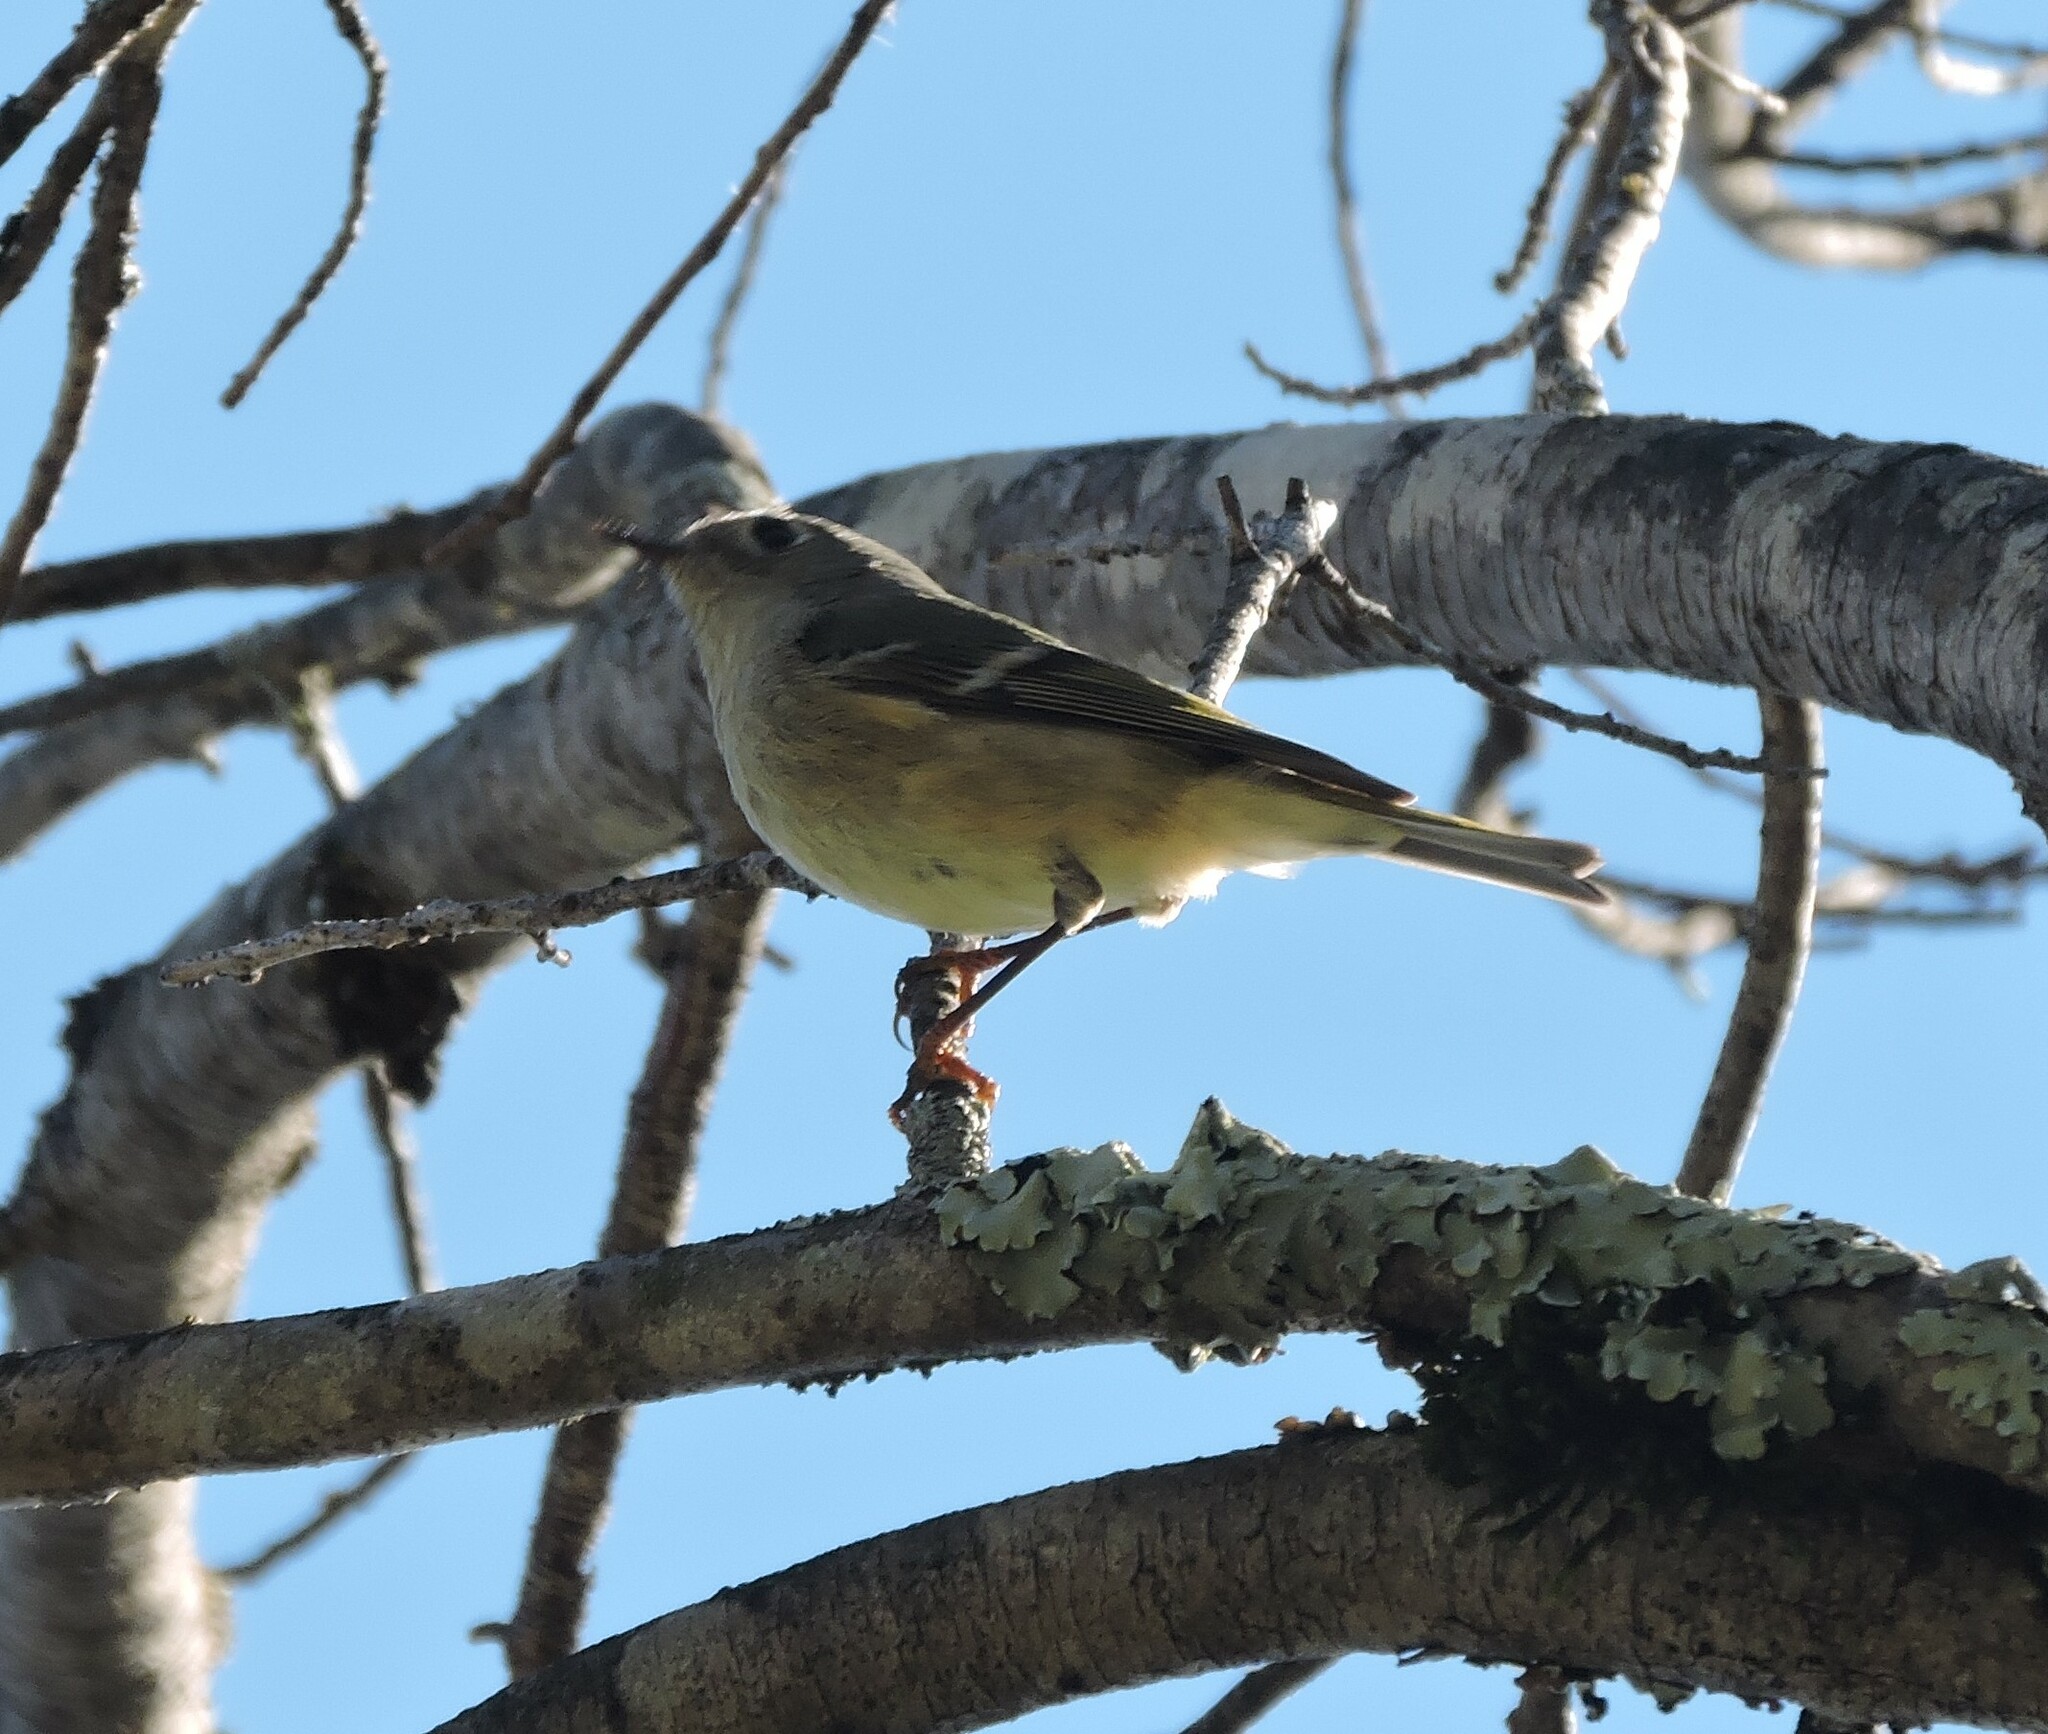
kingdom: Animalia
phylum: Chordata
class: Aves
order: Passeriformes
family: Regulidae
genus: Regulus
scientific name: Regulus calendula
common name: Ruby-crowned kinglet
